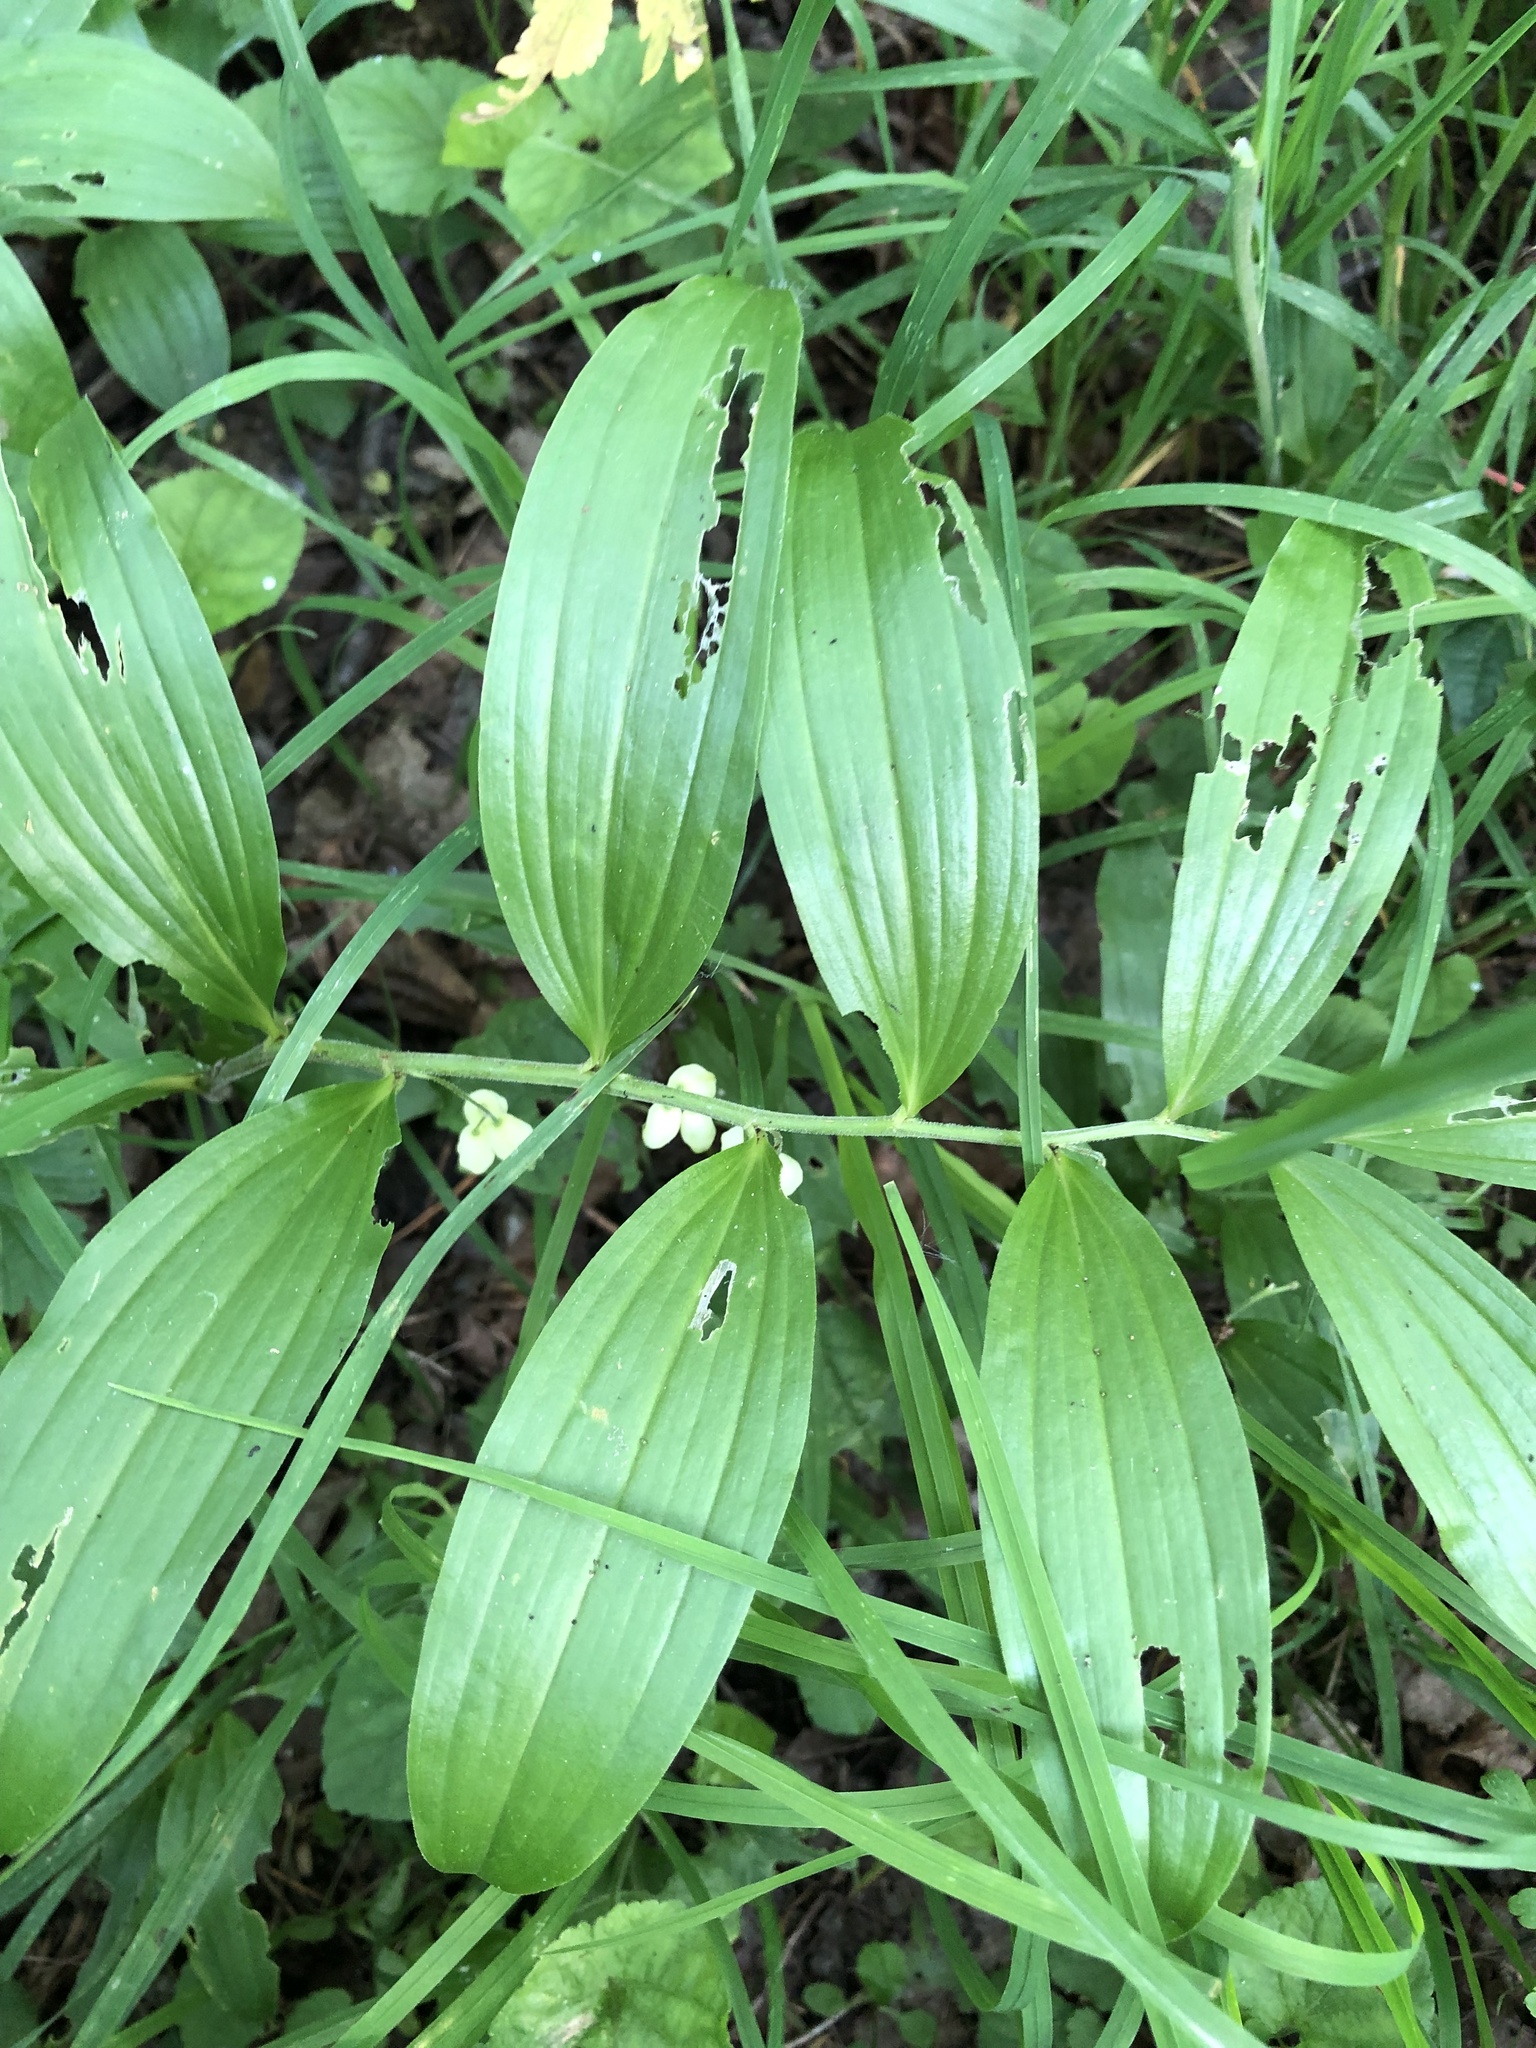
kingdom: Plantae
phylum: Tracheophyta
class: Liliopsida
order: Asparagales
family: Asparagaceae
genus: Polygonatum
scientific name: Polygonatum latifolium
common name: Broadleaf solomon's seal
